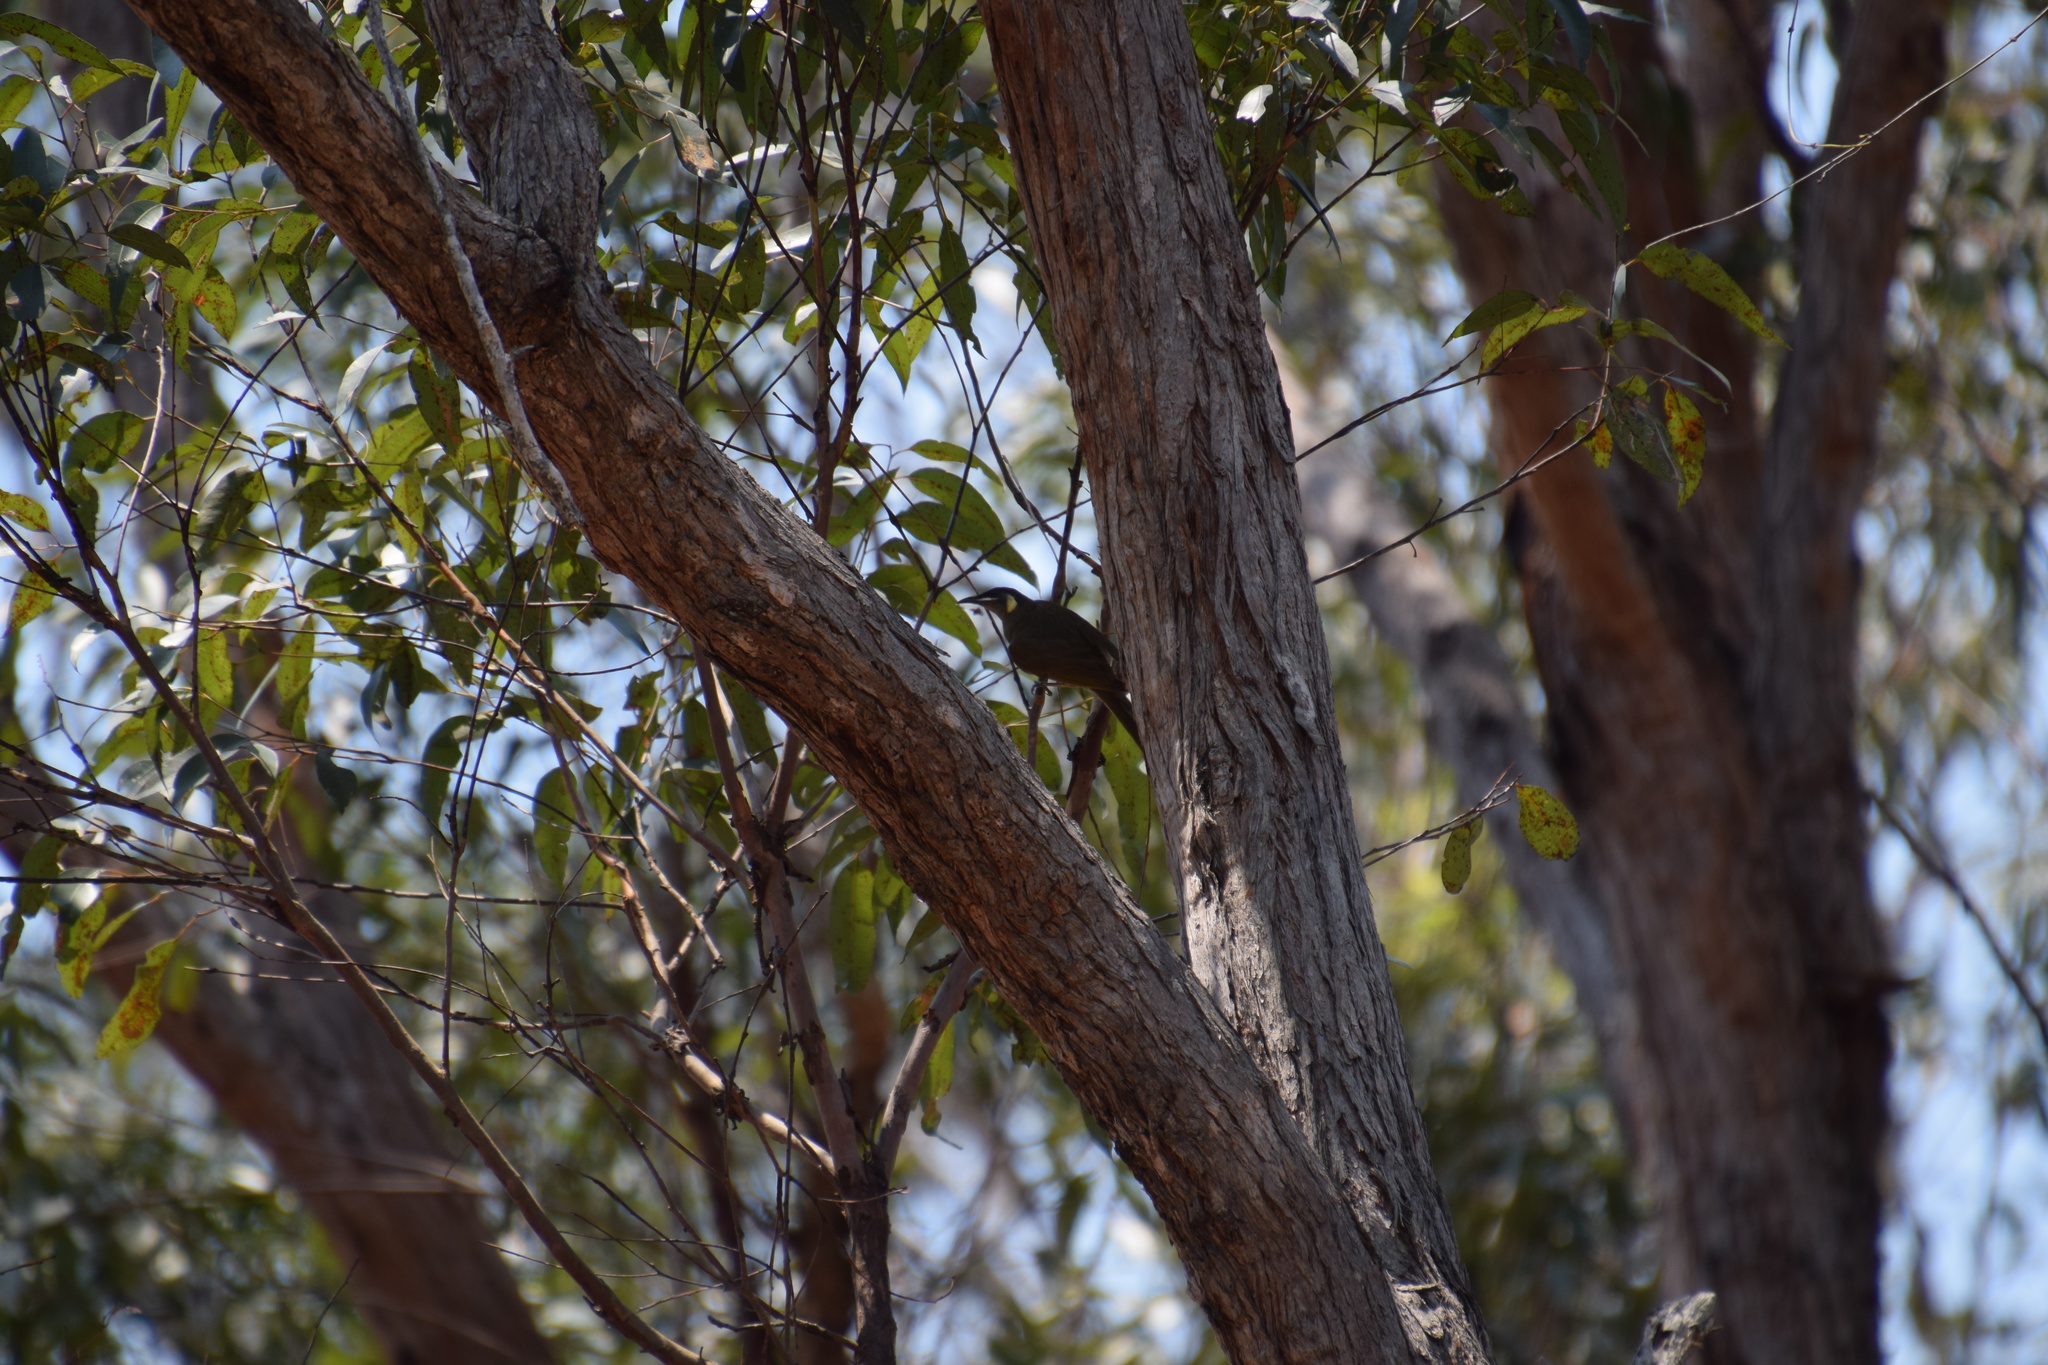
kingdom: Animalia
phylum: Chordata
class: Aves
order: Passeriformes
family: Meliphagidae
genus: Meliphaga
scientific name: Meliphaga lewinii
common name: Lewin's honeyeater
